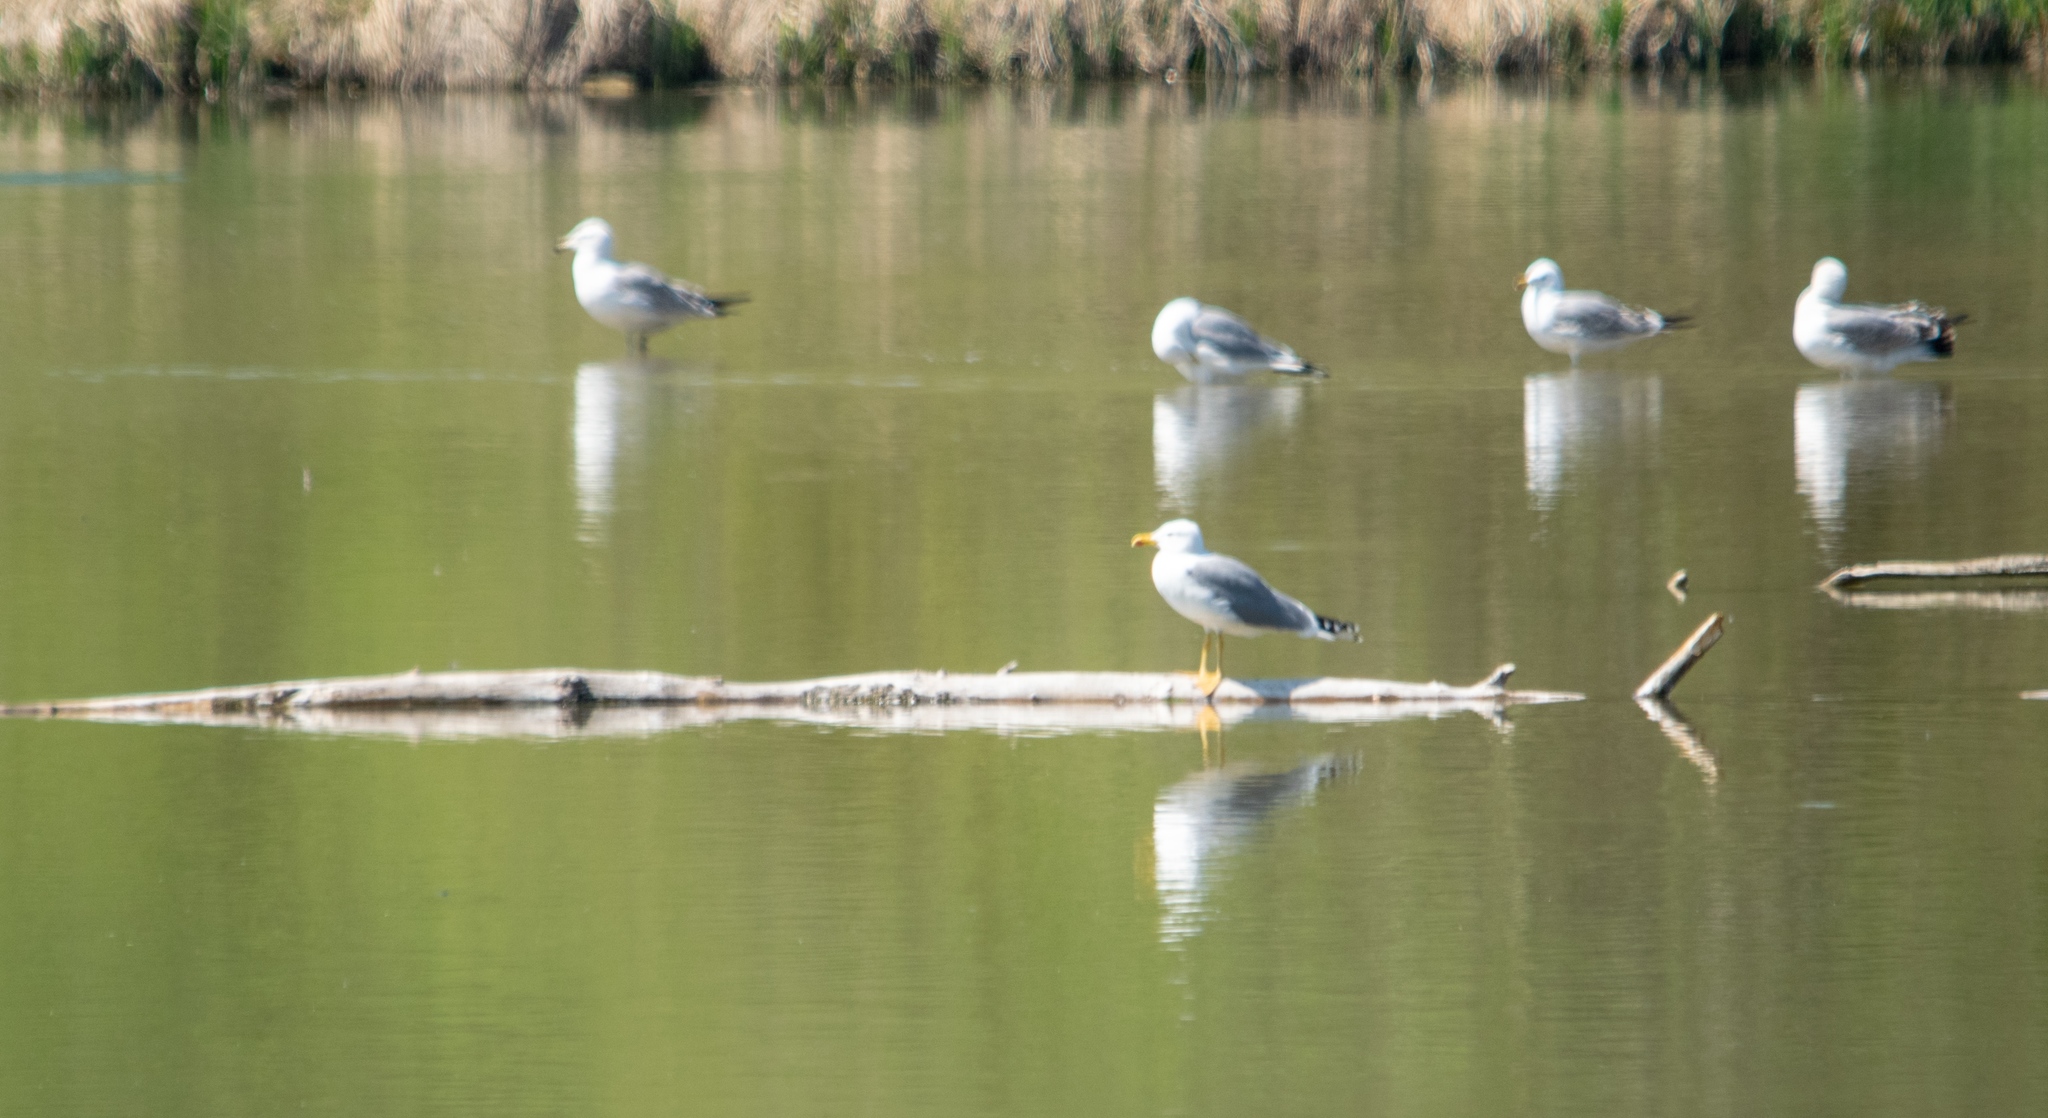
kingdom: Animalia
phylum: Chordata
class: Aves
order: Charadriiformes
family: Laridae
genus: Larus
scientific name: Larus michahellis
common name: Yellow-legged gull
